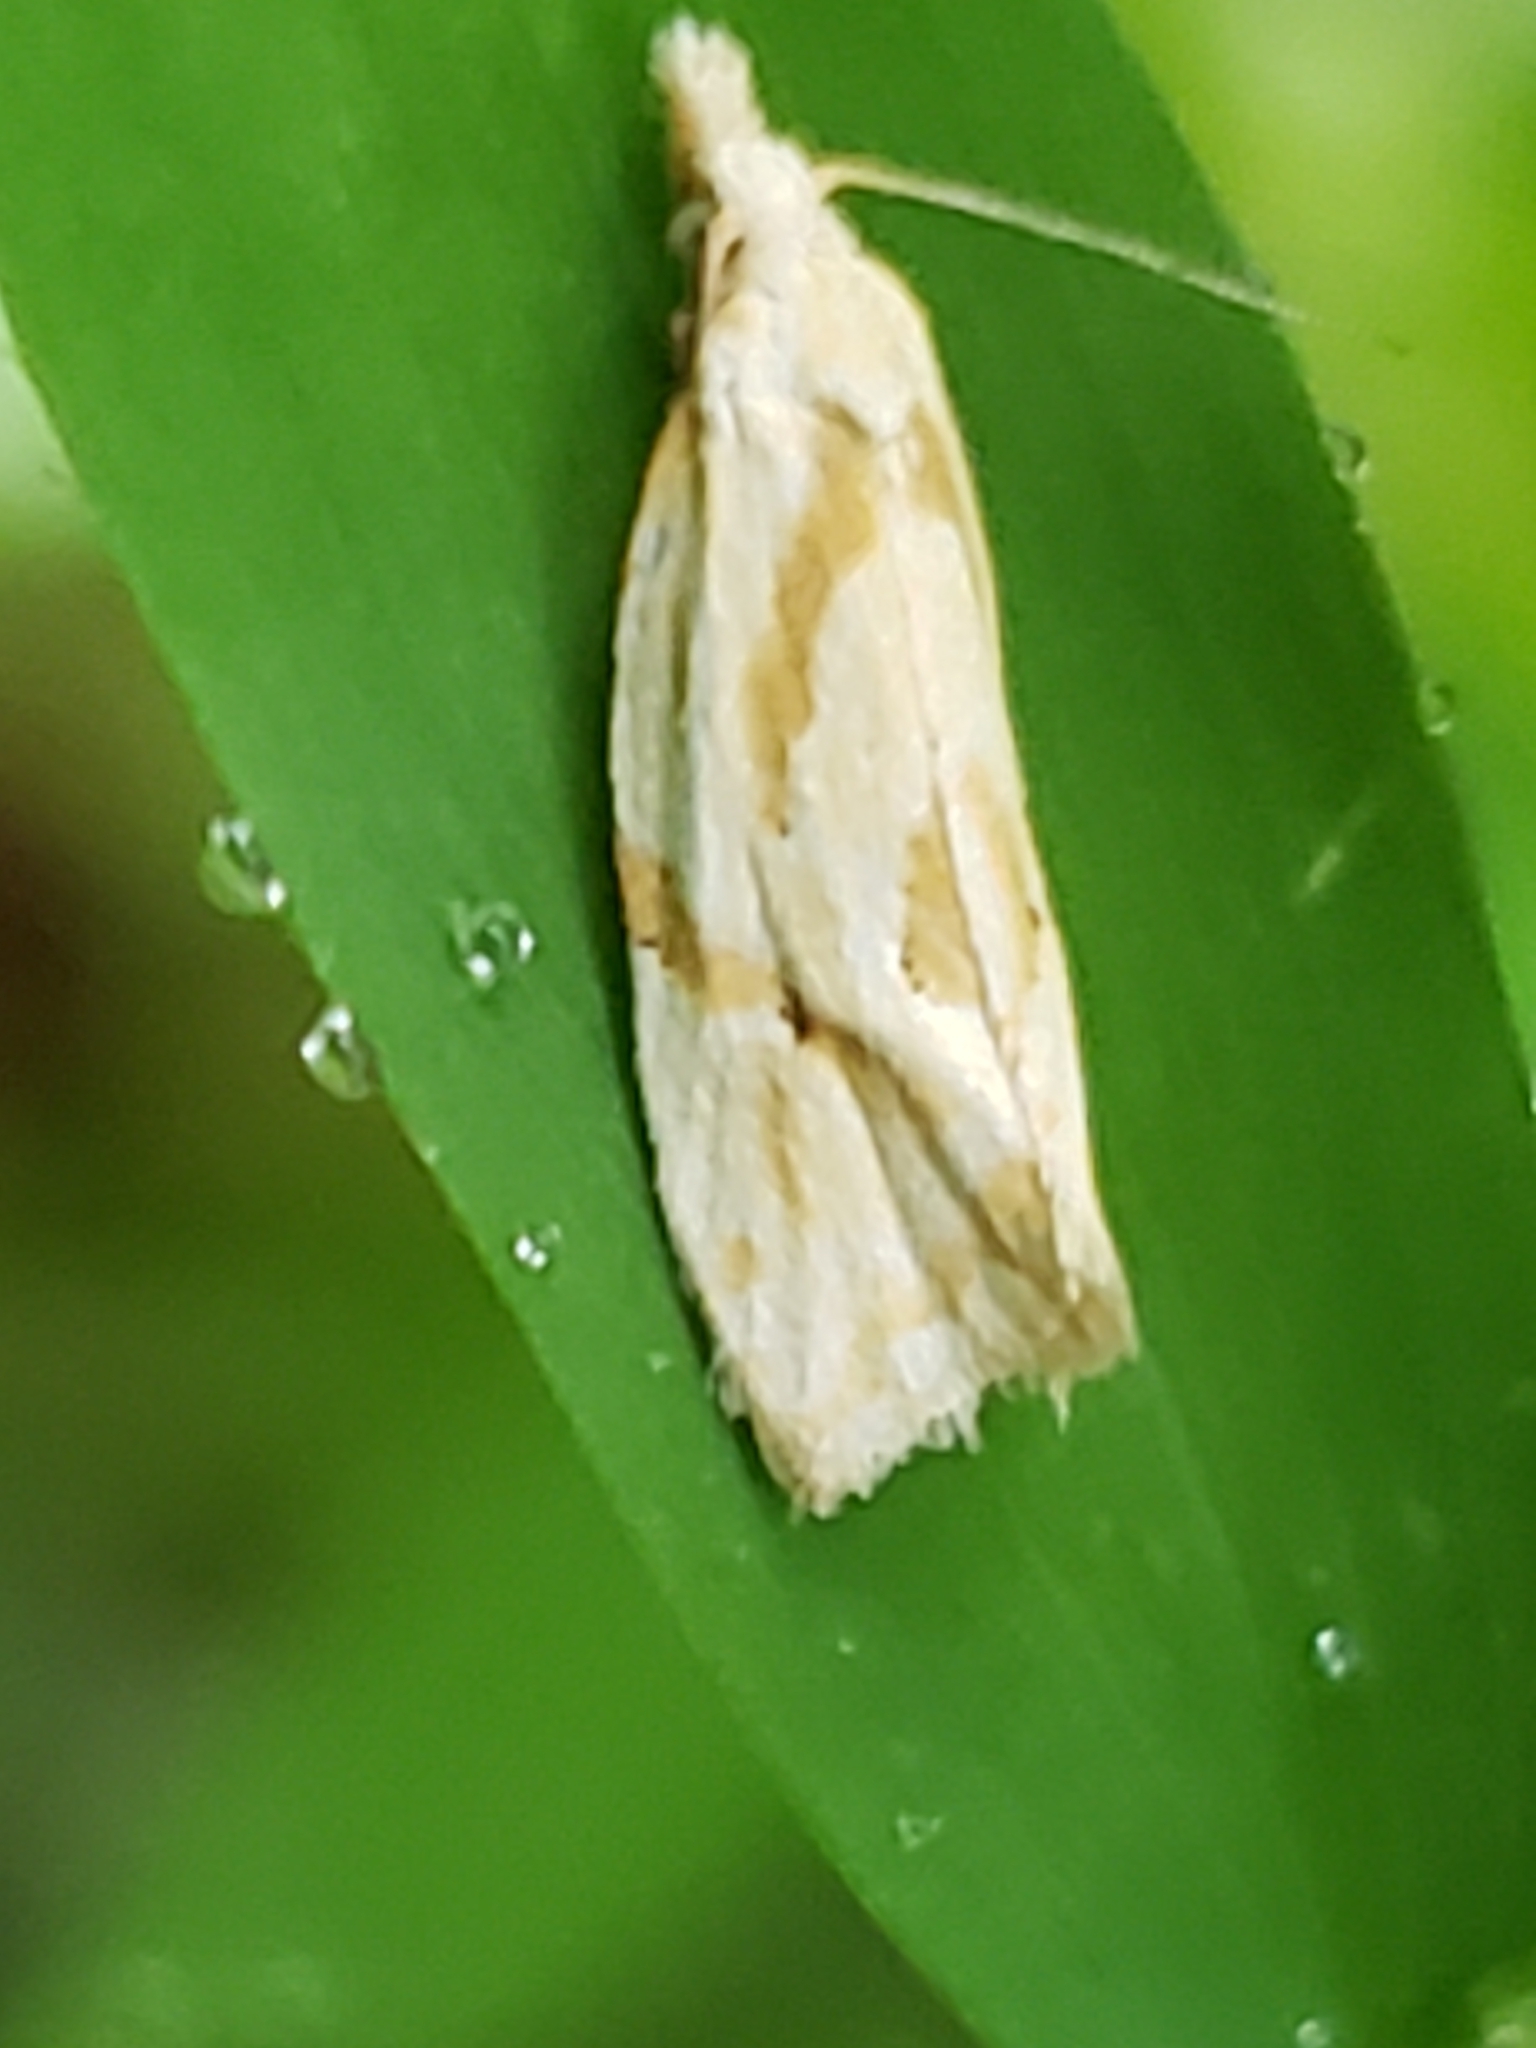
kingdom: Animalia
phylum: Arthropoda
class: Insecta
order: Lepidoptera
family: Tortricidae
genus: Aethes
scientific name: Aethes promptana
